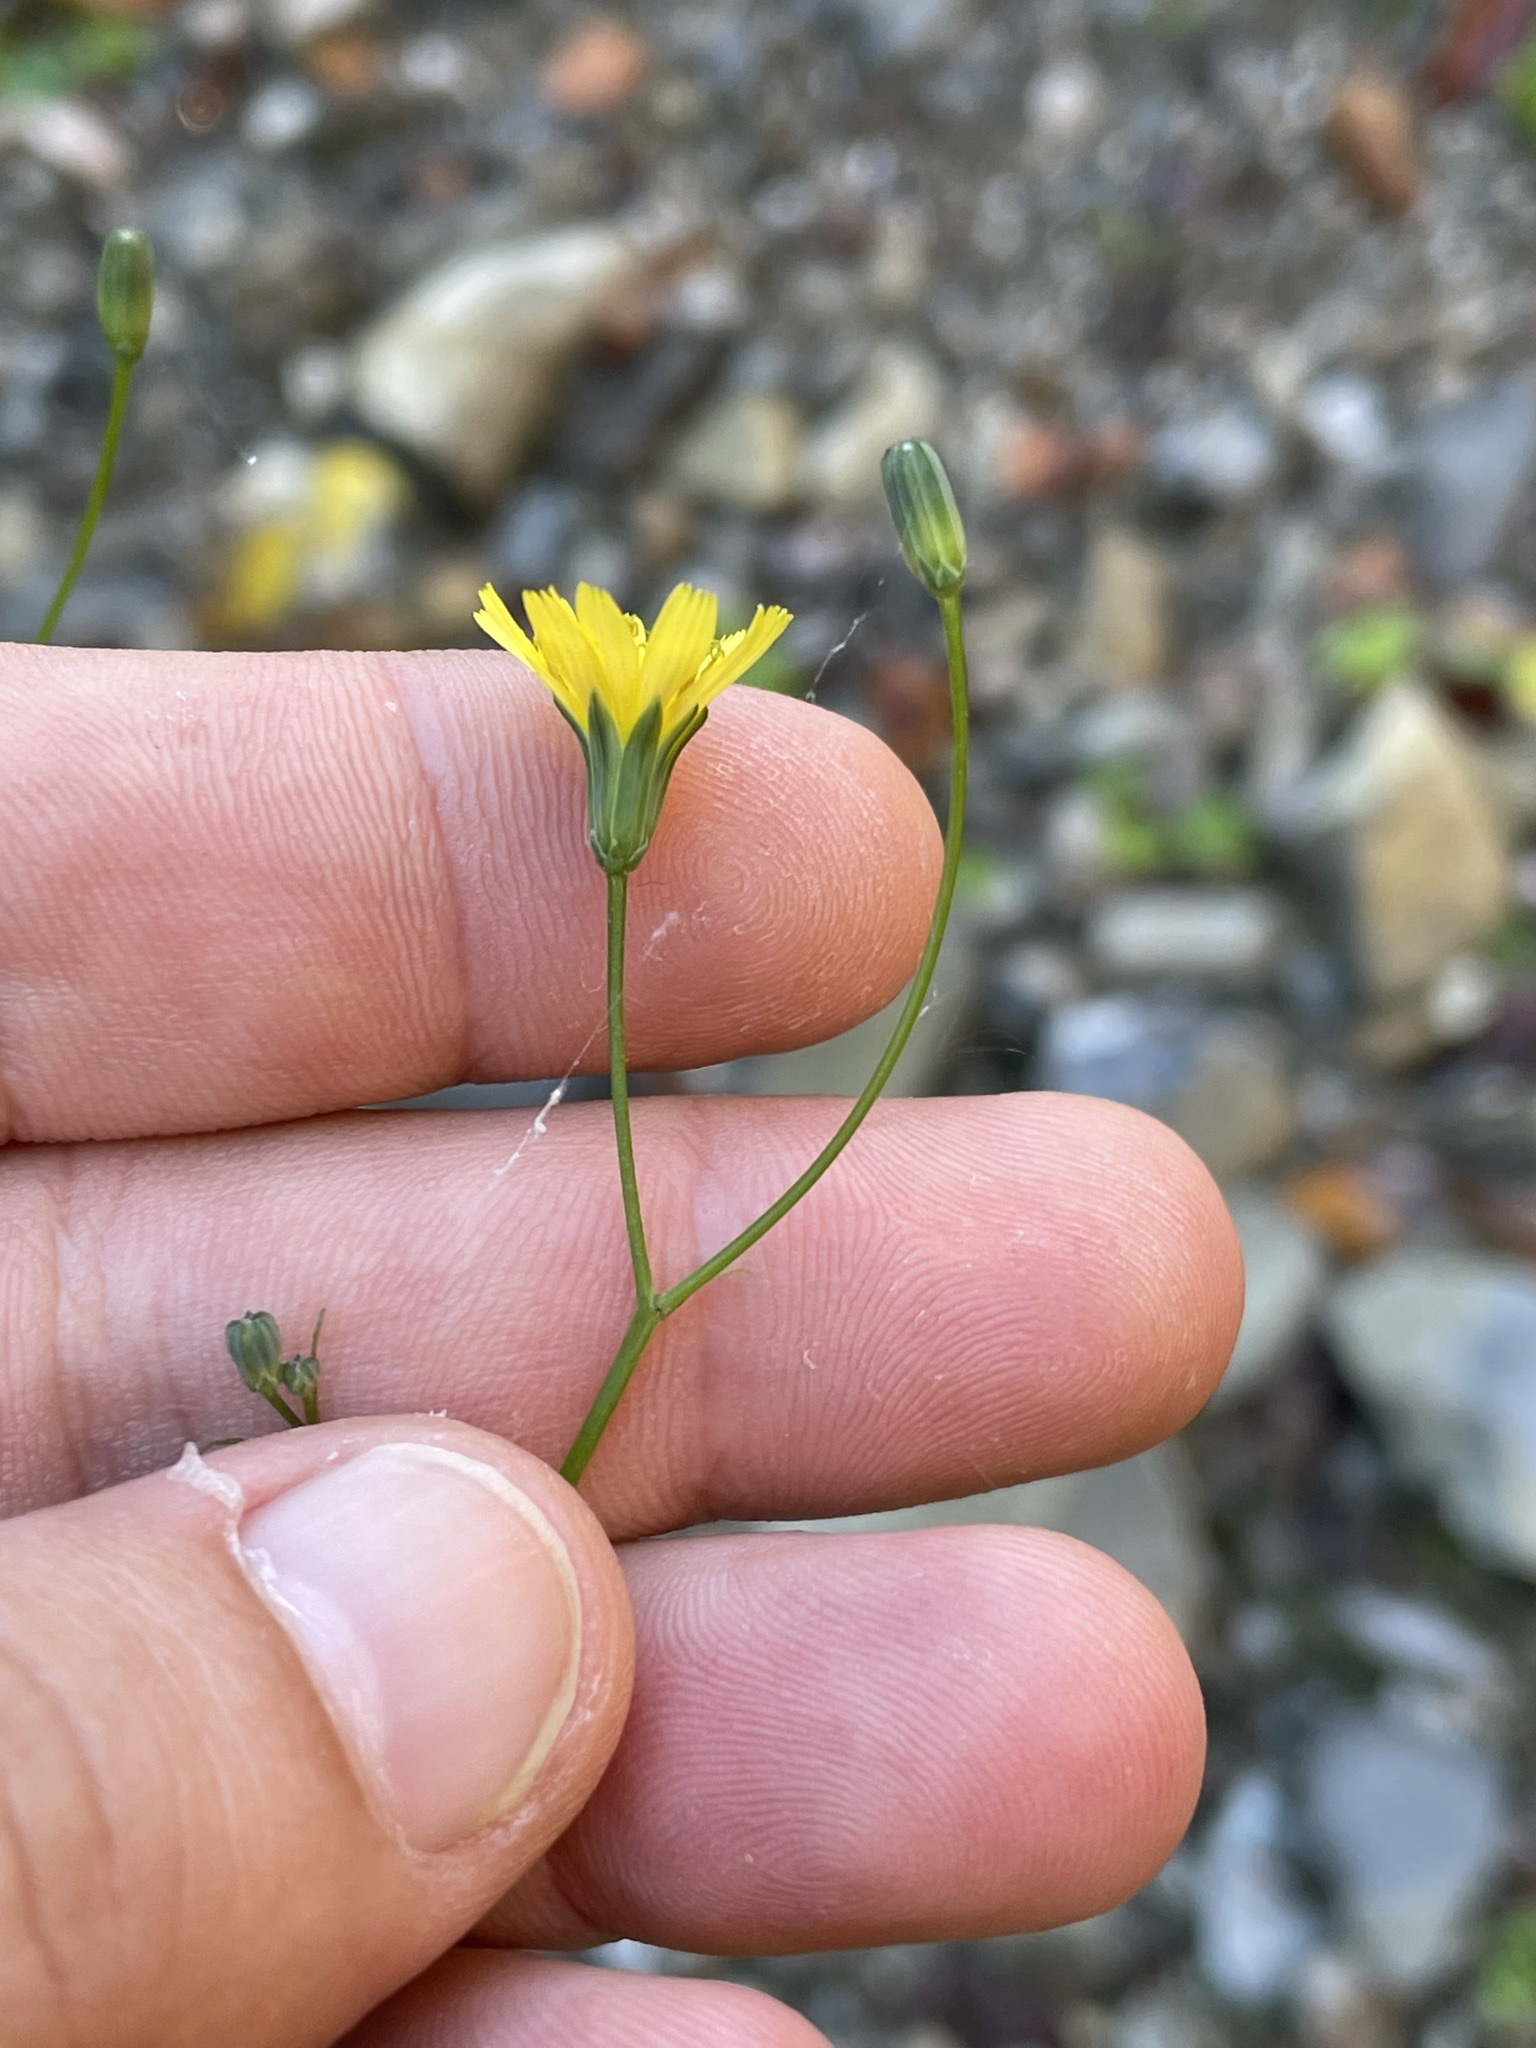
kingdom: Plantae
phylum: Tracheophyta
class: Magnoliopsida
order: Asterales
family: Asteraceae
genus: Lapsana
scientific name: Lapsana communis
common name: Nipplewort
